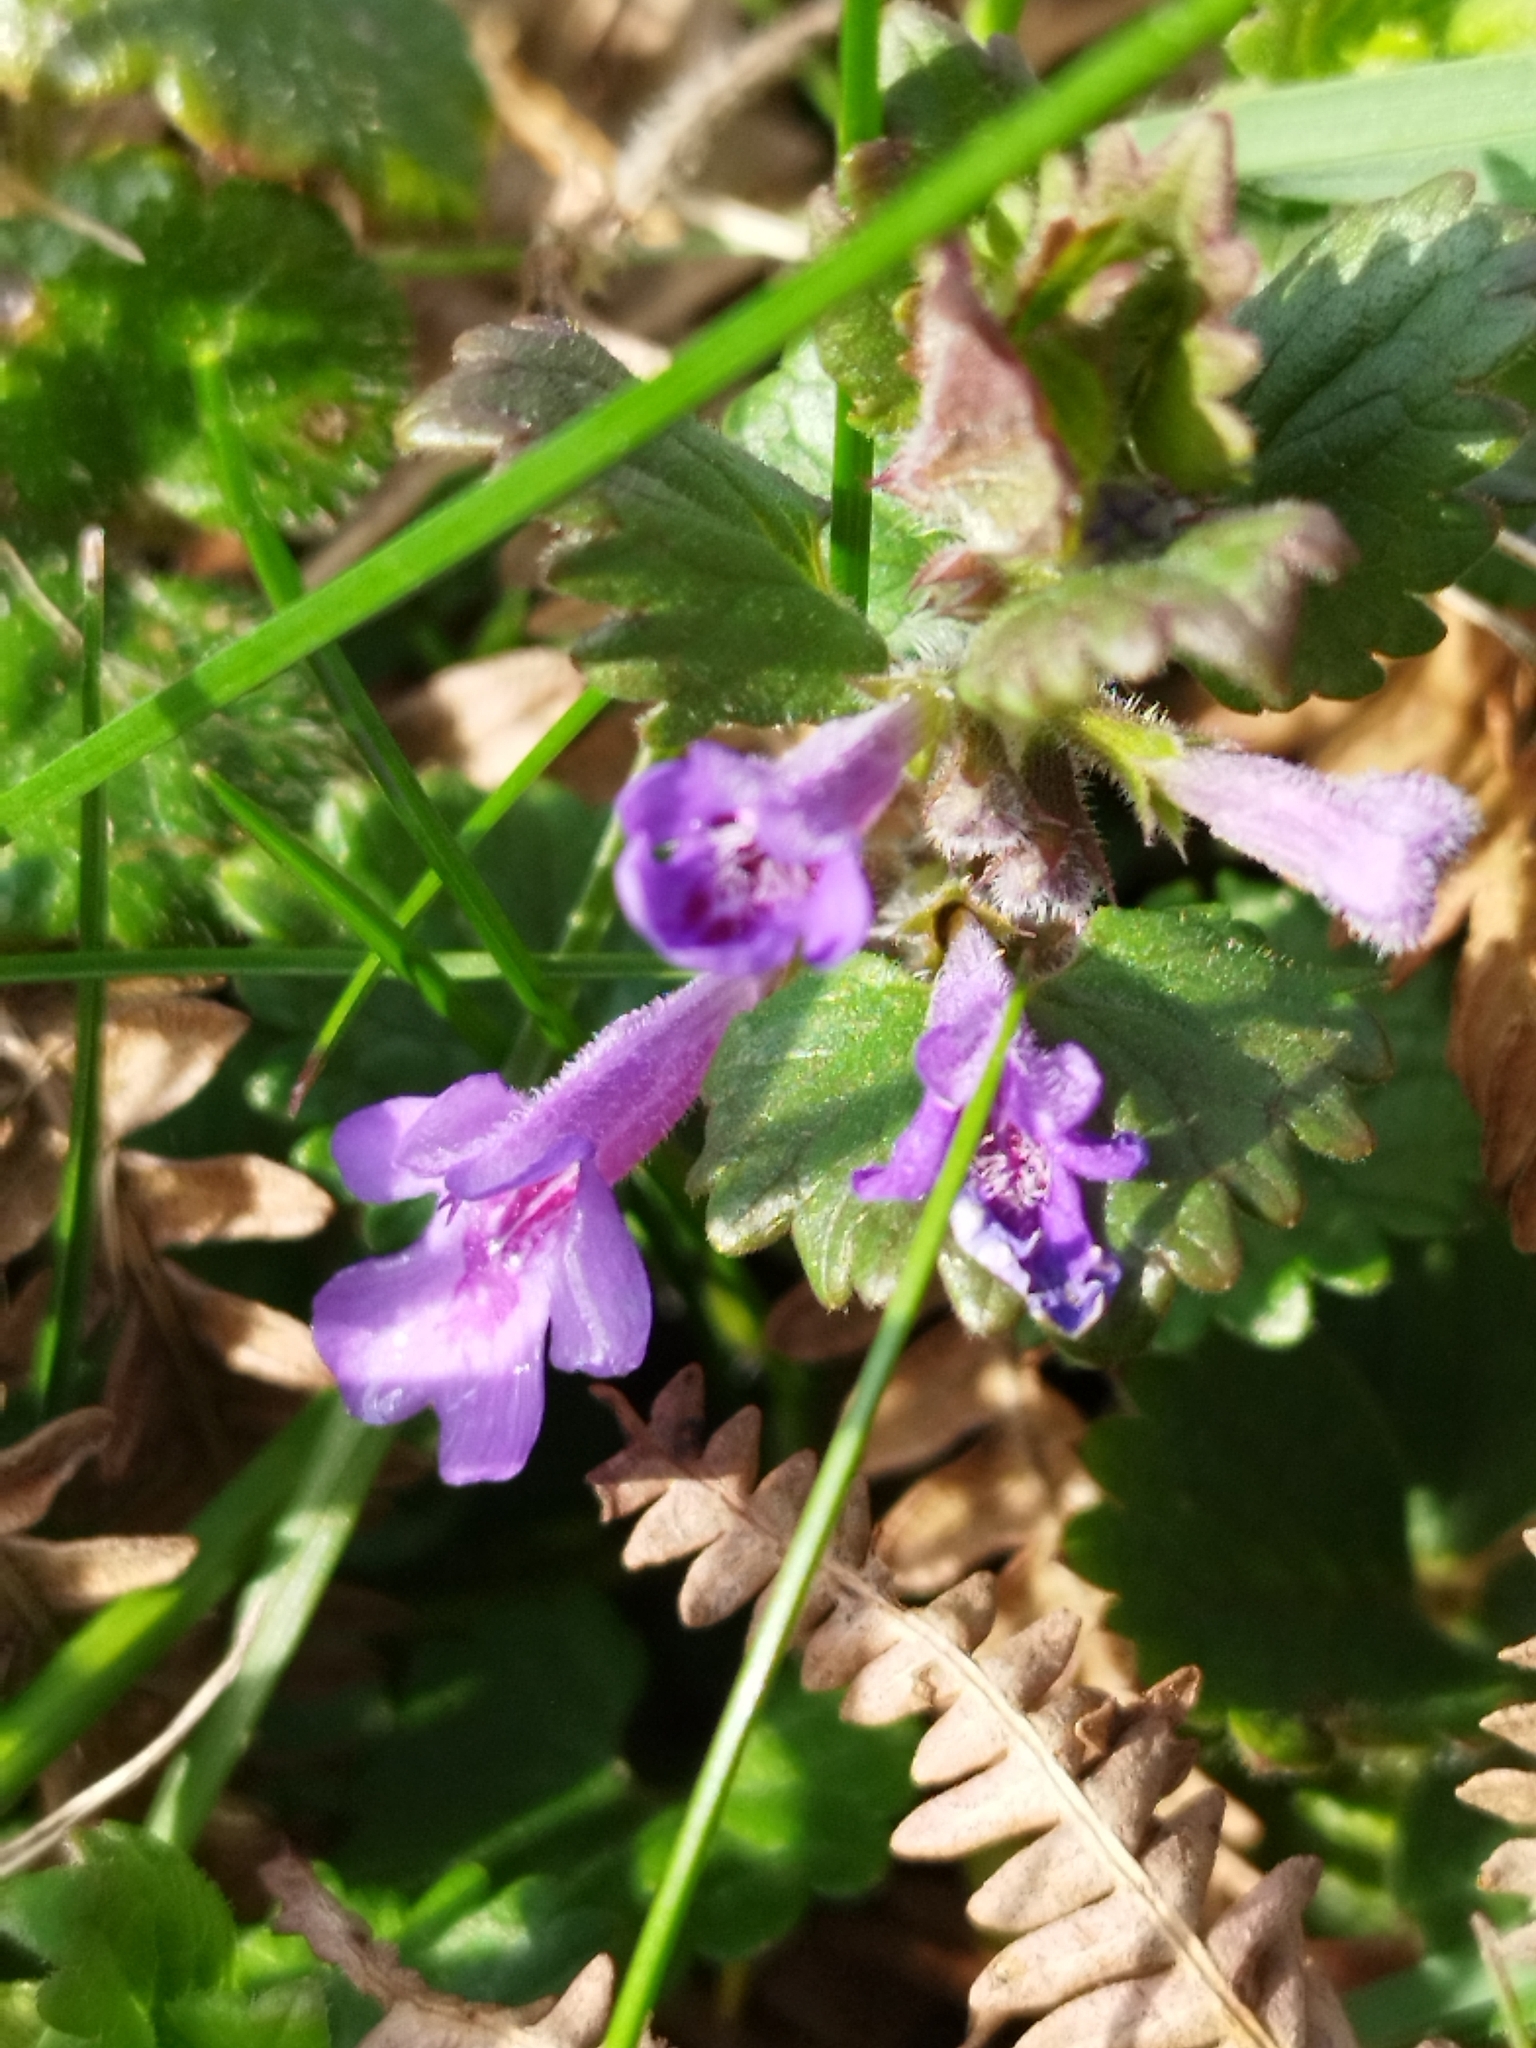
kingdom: Plantae
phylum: Tracheophyta
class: Magnoliopsida
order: Lamiales
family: Lamiaceae
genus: Glechoma
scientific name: Glechoma hederacea
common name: Ground ivy
